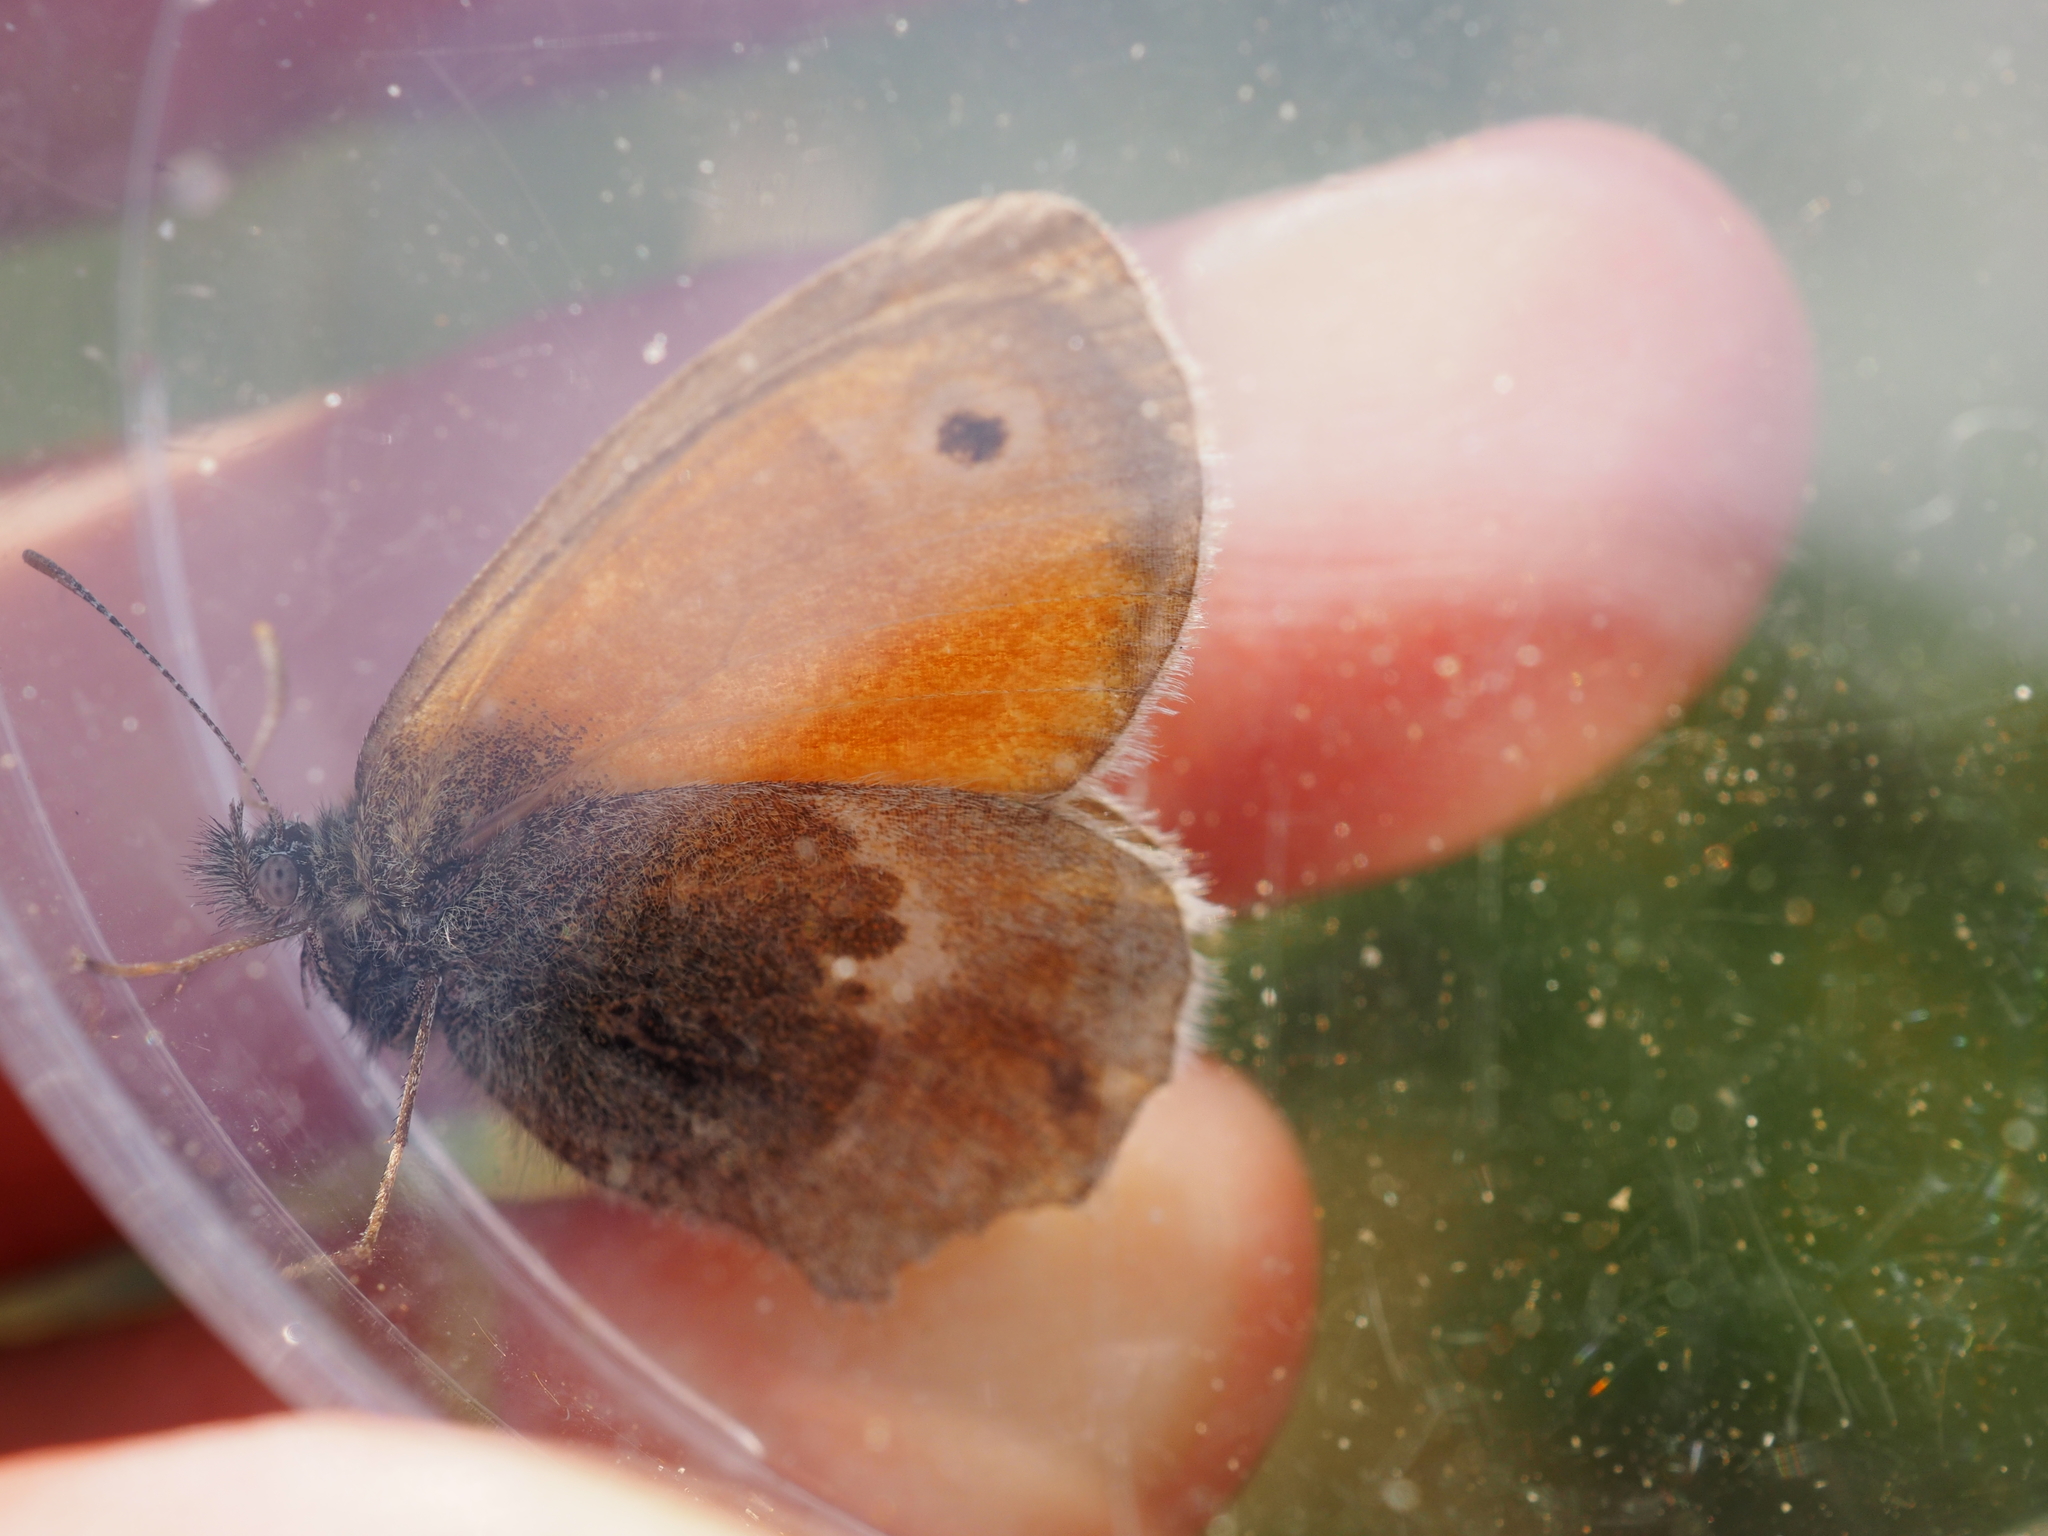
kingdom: Animalia
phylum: Arthropoda
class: Insecta
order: Lepidoptera
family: Nymphalidae
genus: Coenonympha
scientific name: Coenonympha pamphilus
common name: Small heath
